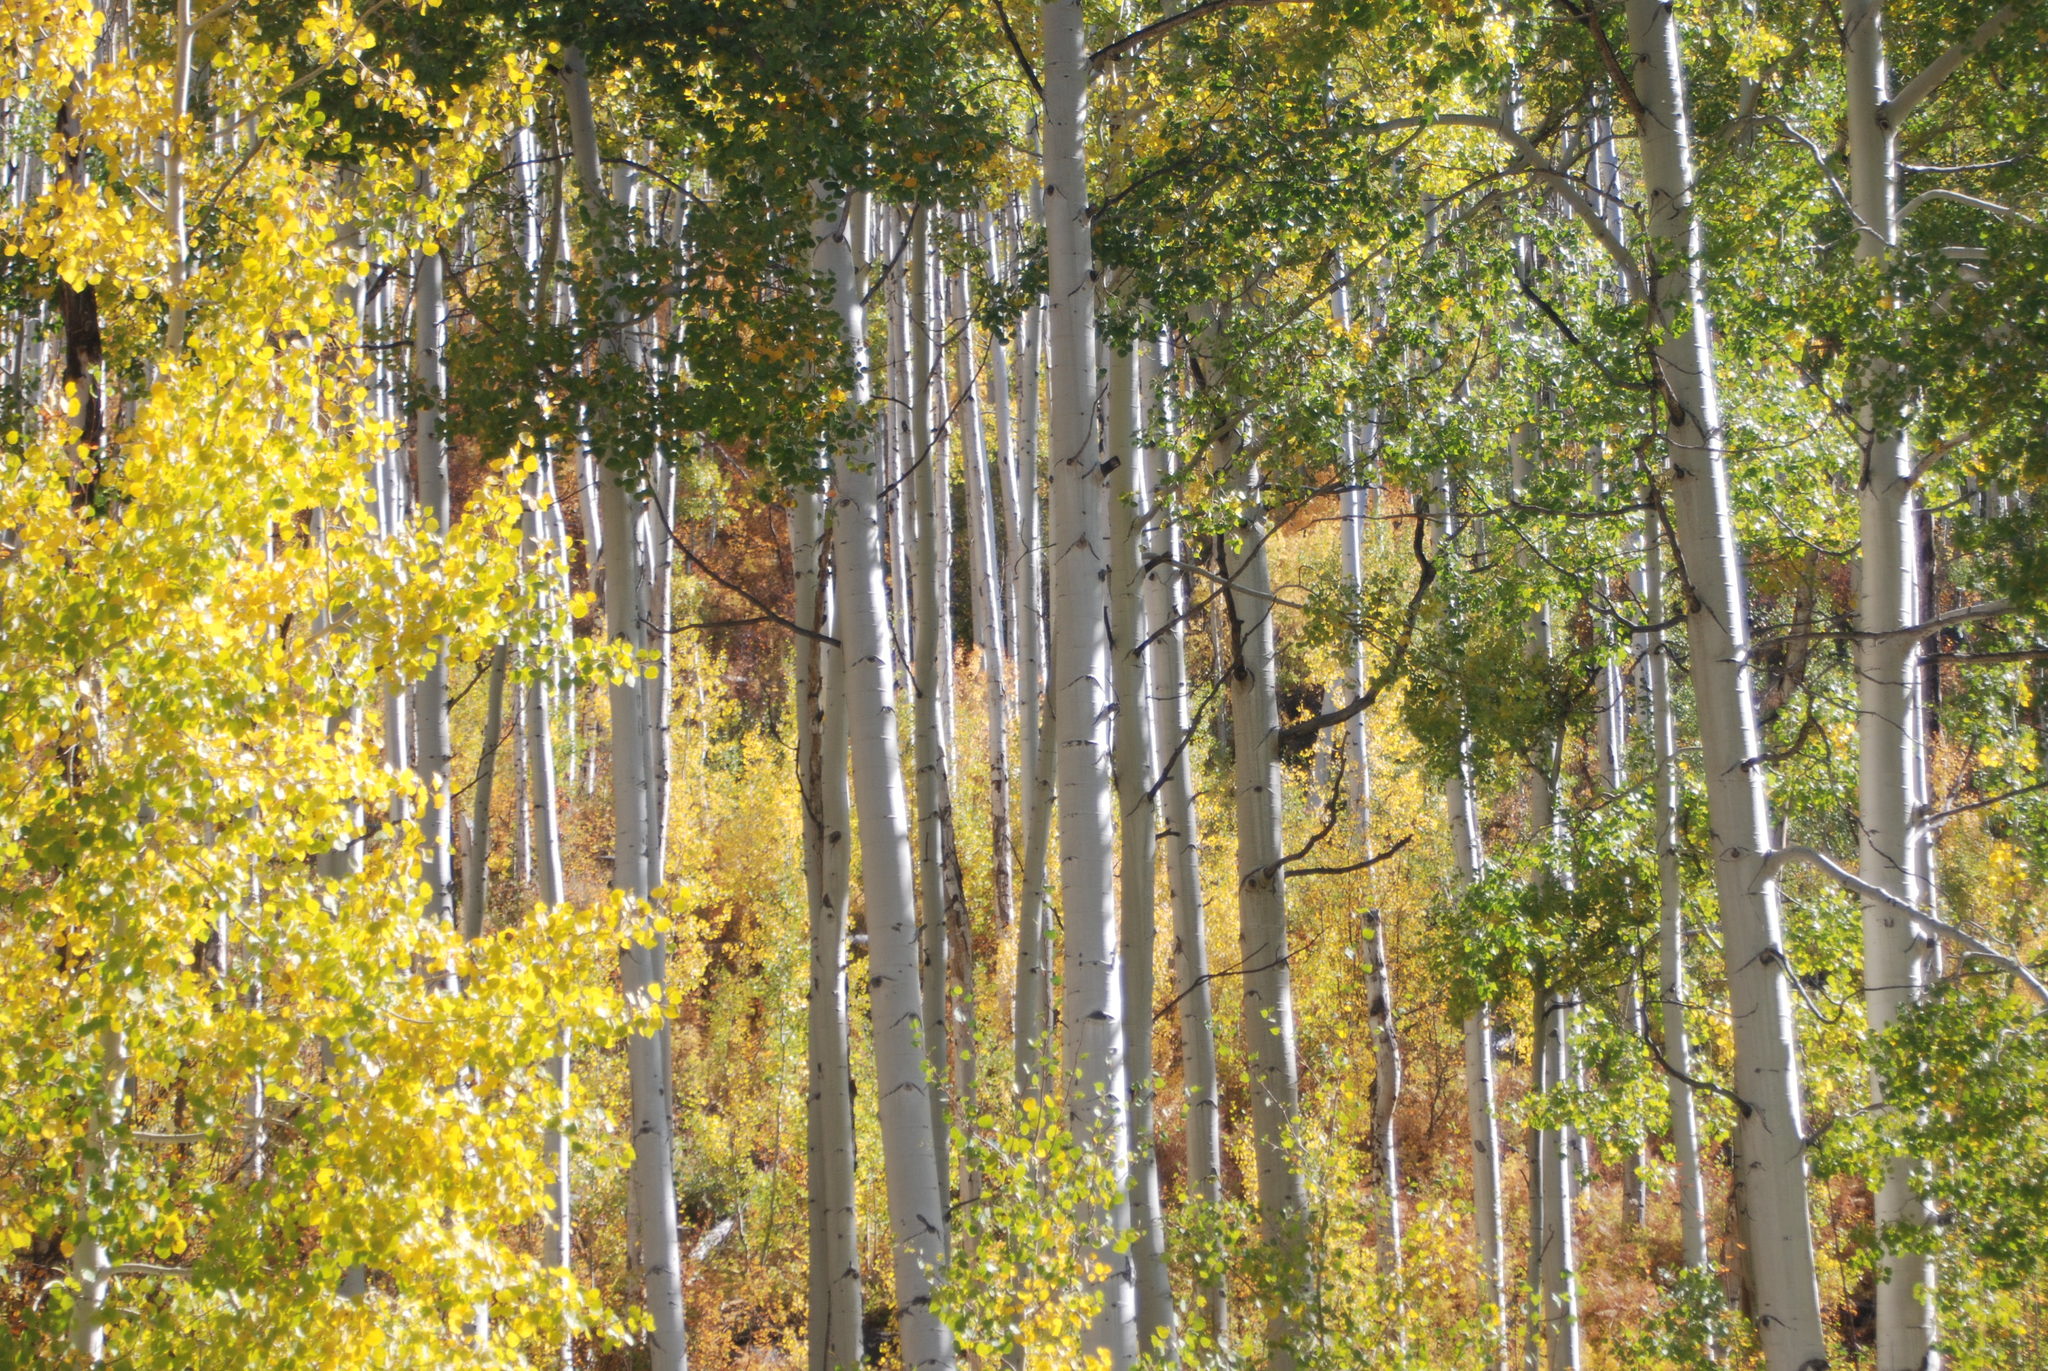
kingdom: Plantae
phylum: Tracheophyta
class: Magnoliopsida
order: Malpighiales
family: Salicaceae
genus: Populus
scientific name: Populus tremuloides
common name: Quaking aspen
